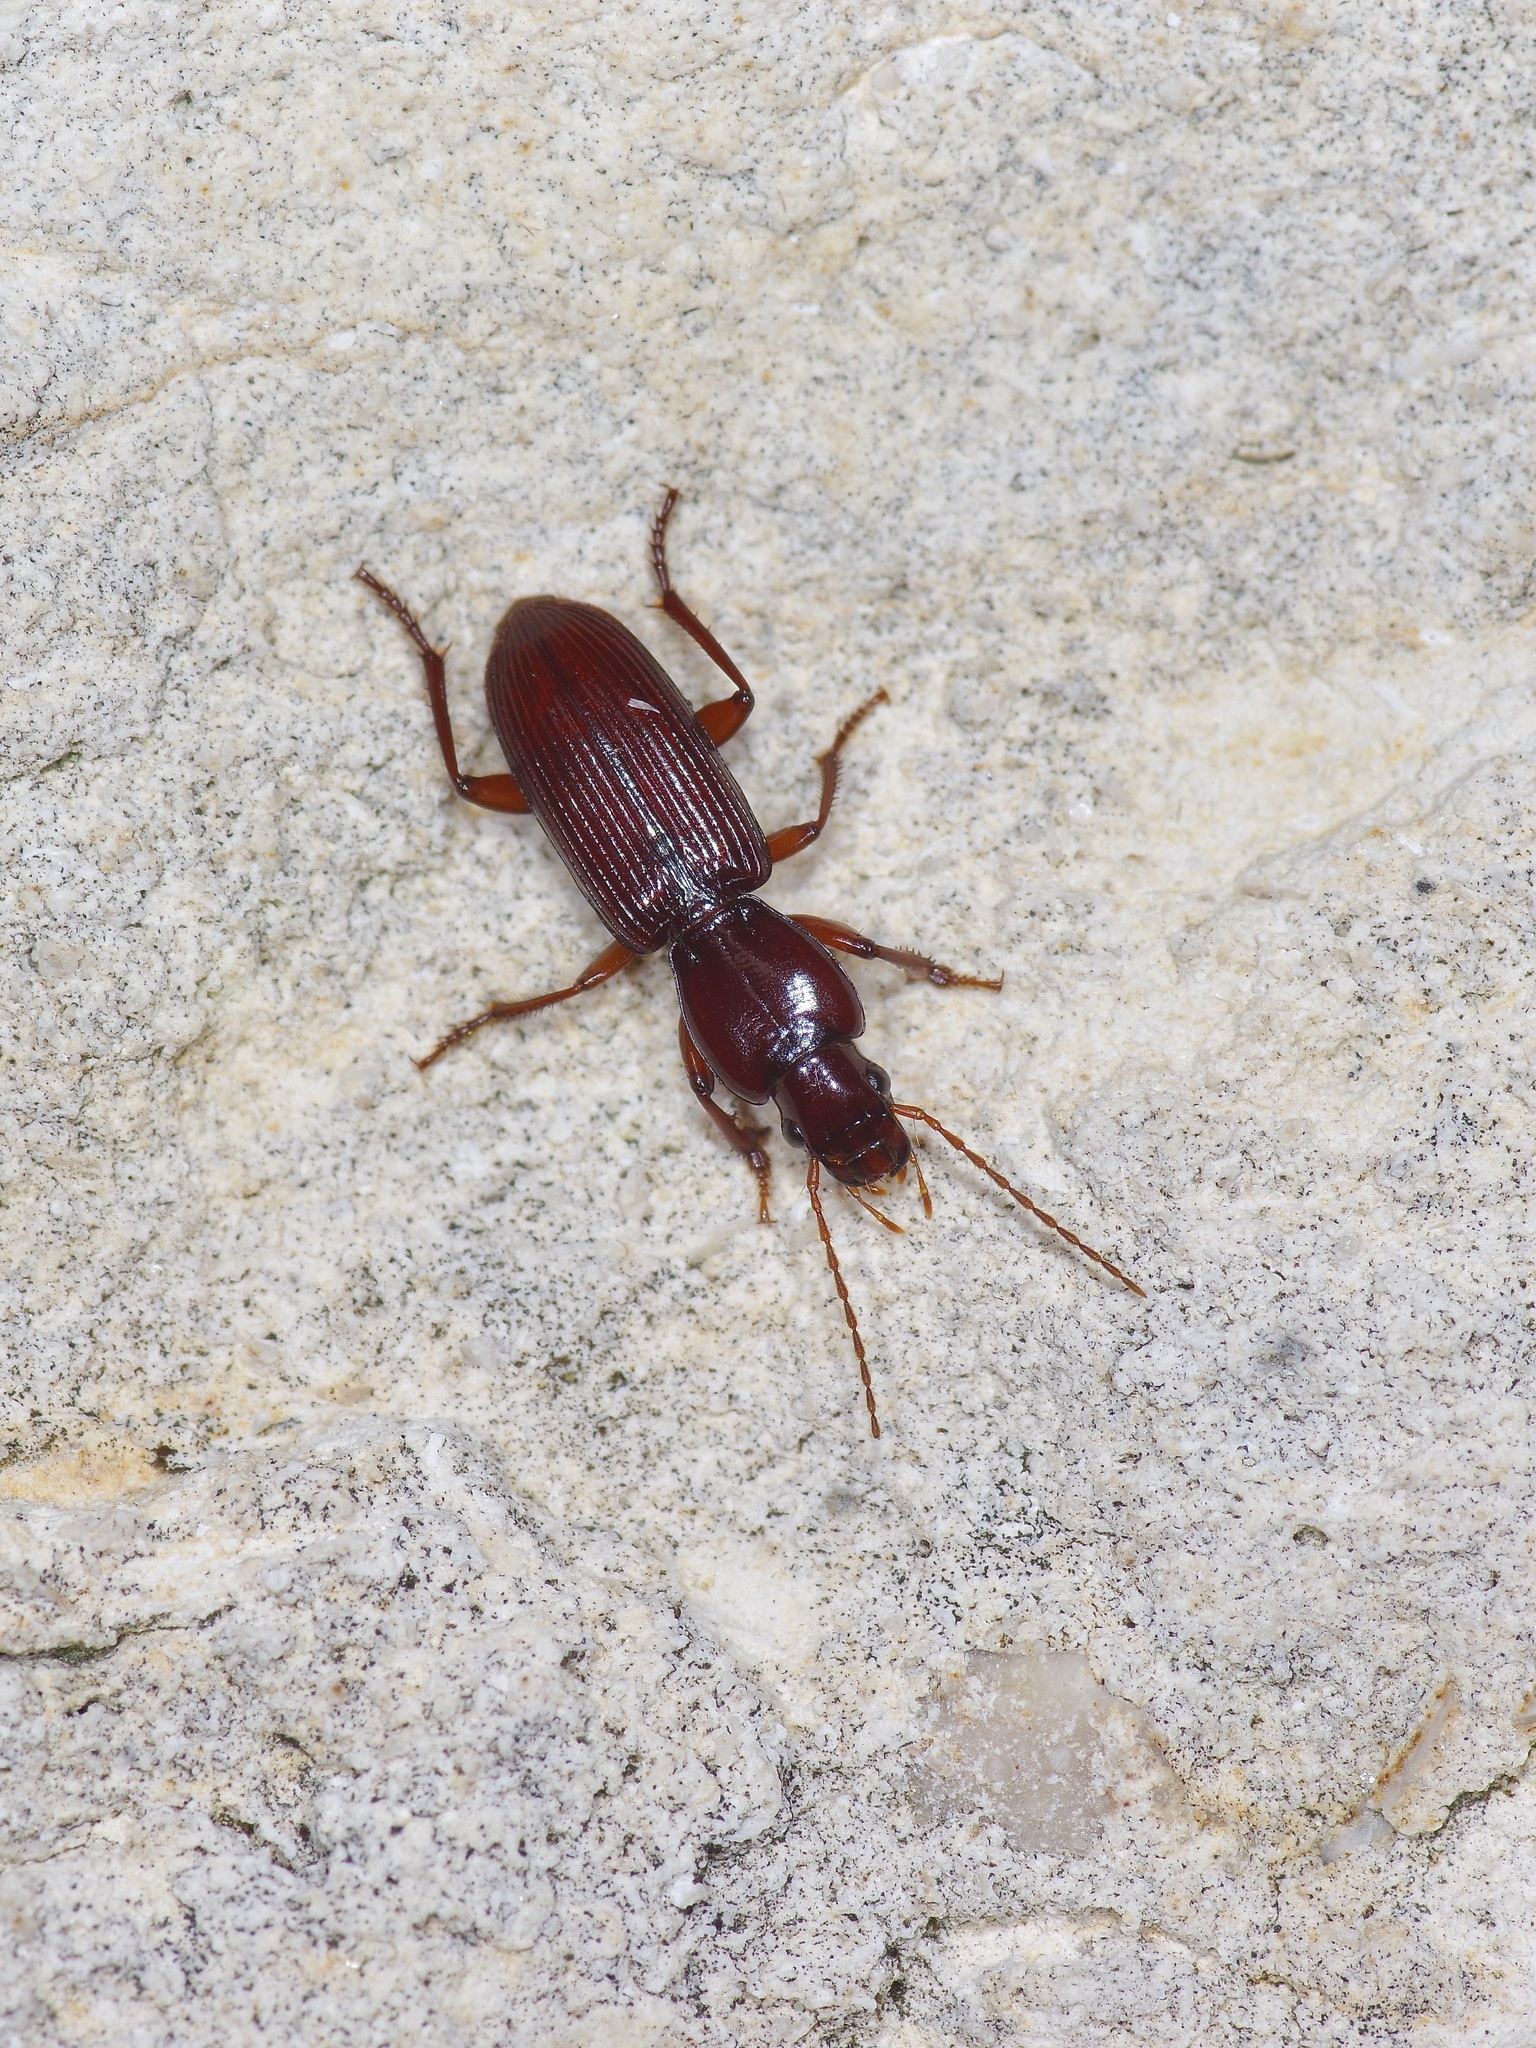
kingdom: Animalia
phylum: Arthropoda
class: Insecta
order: Coleoptera
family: Carabidae
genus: Stenomorphus
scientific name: Stenomorphus californicus
